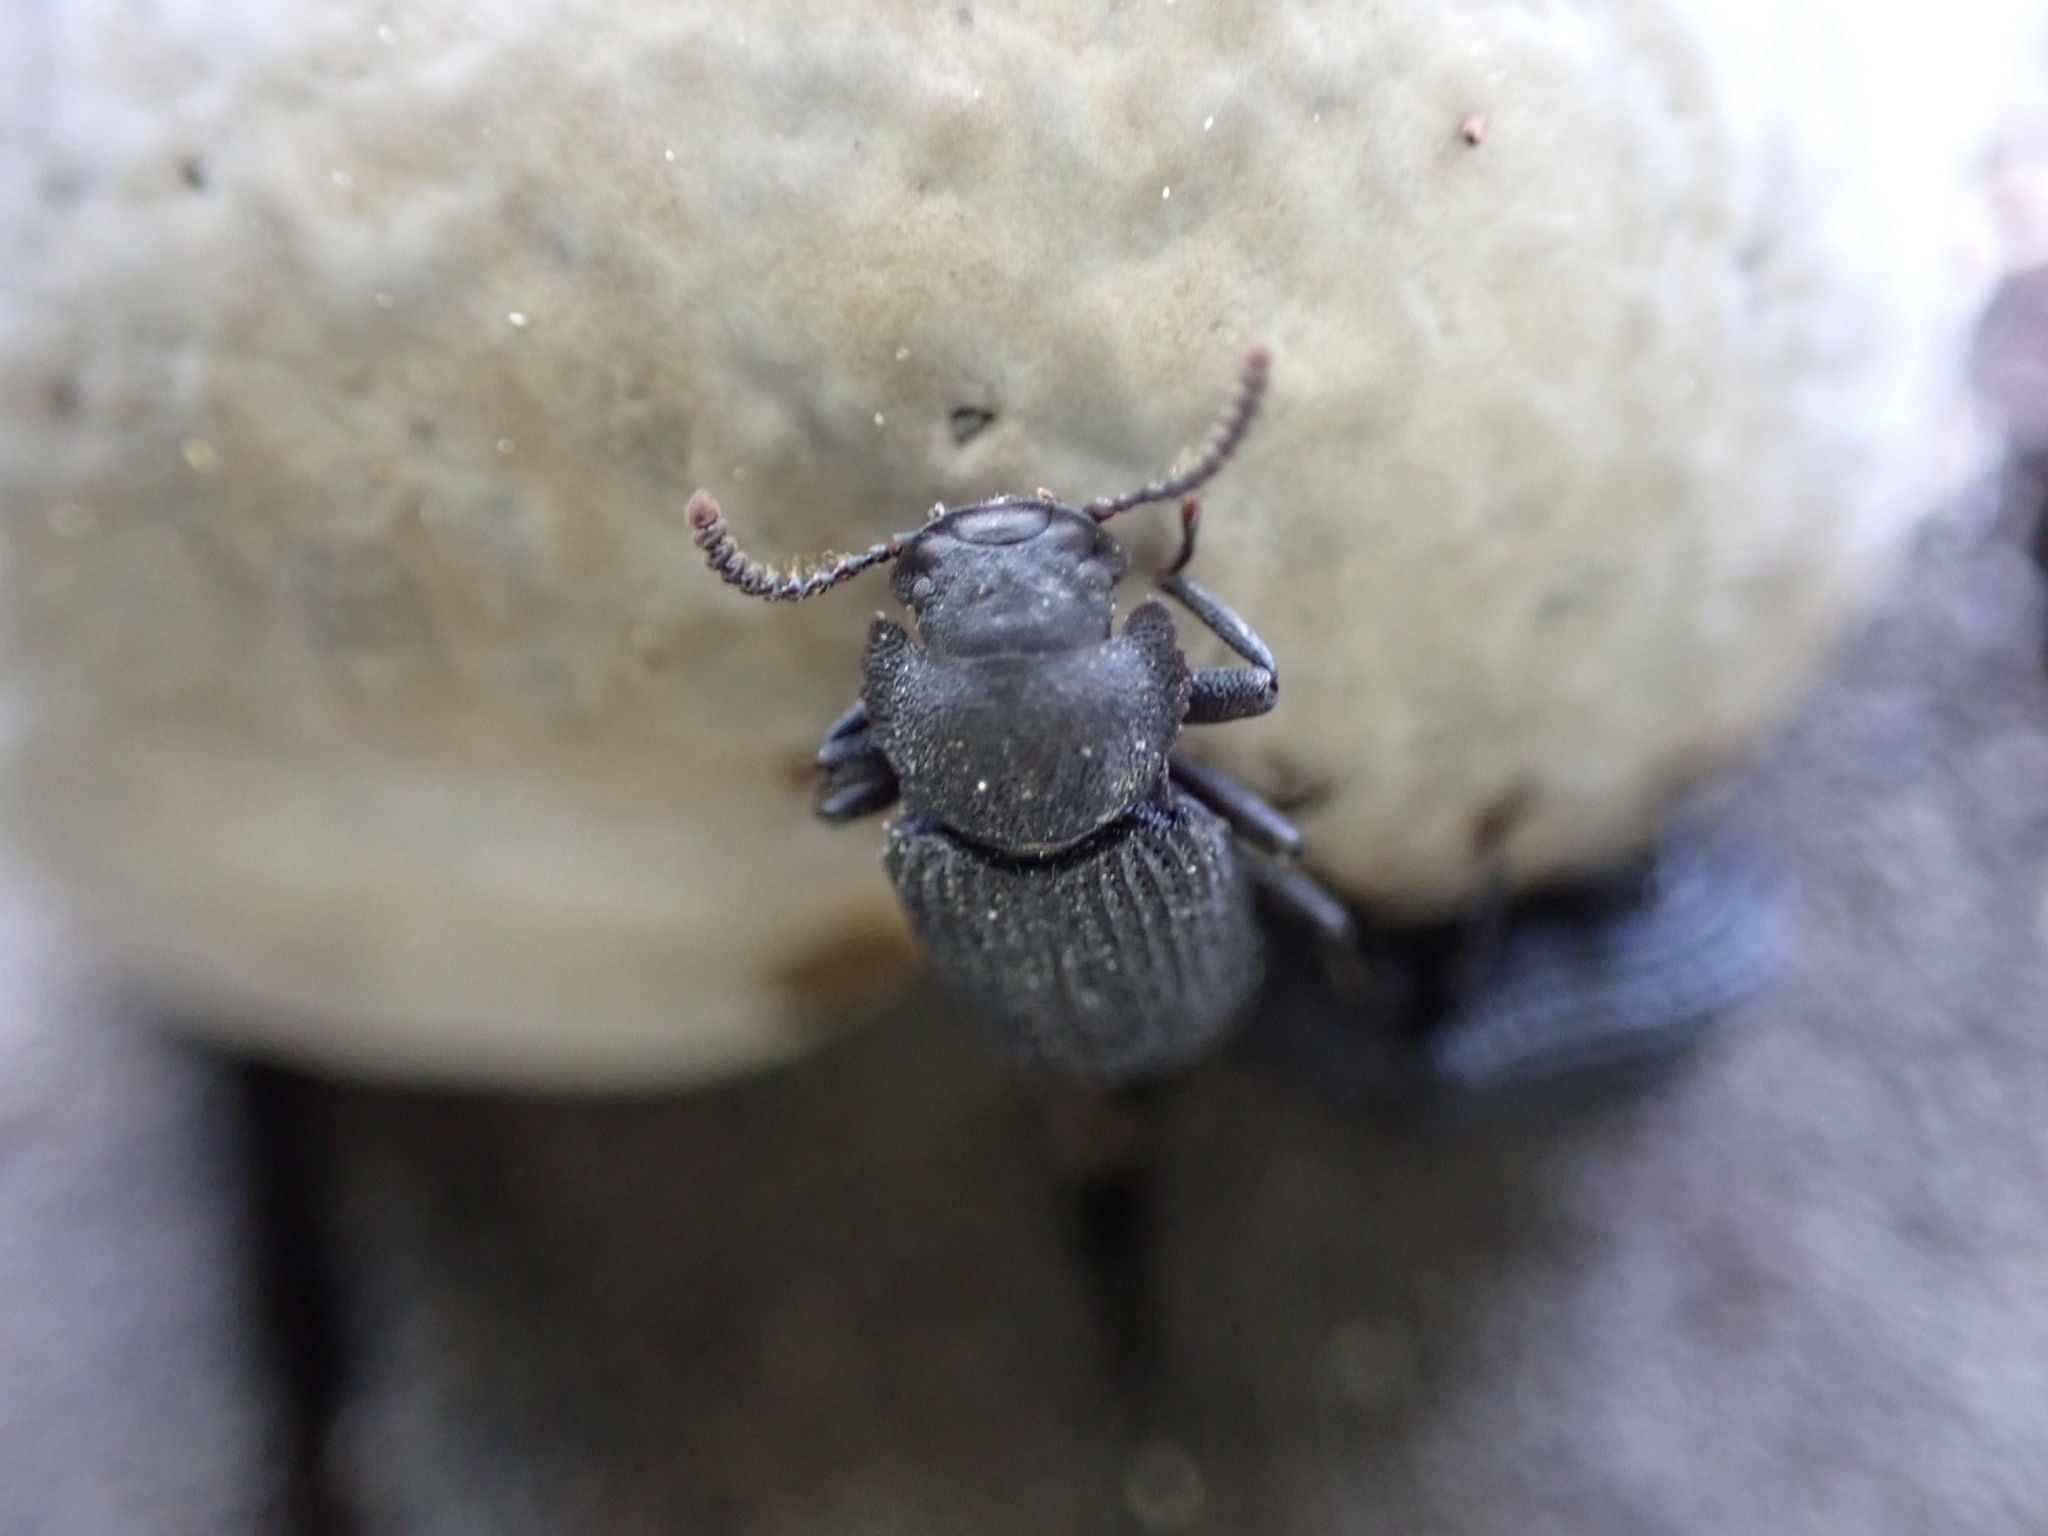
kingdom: Animalia
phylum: Arthropoda
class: Insecta
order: Coleoptera
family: Tenebrionidae
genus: Bolitophagus
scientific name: Bolitophagus reticulatus
